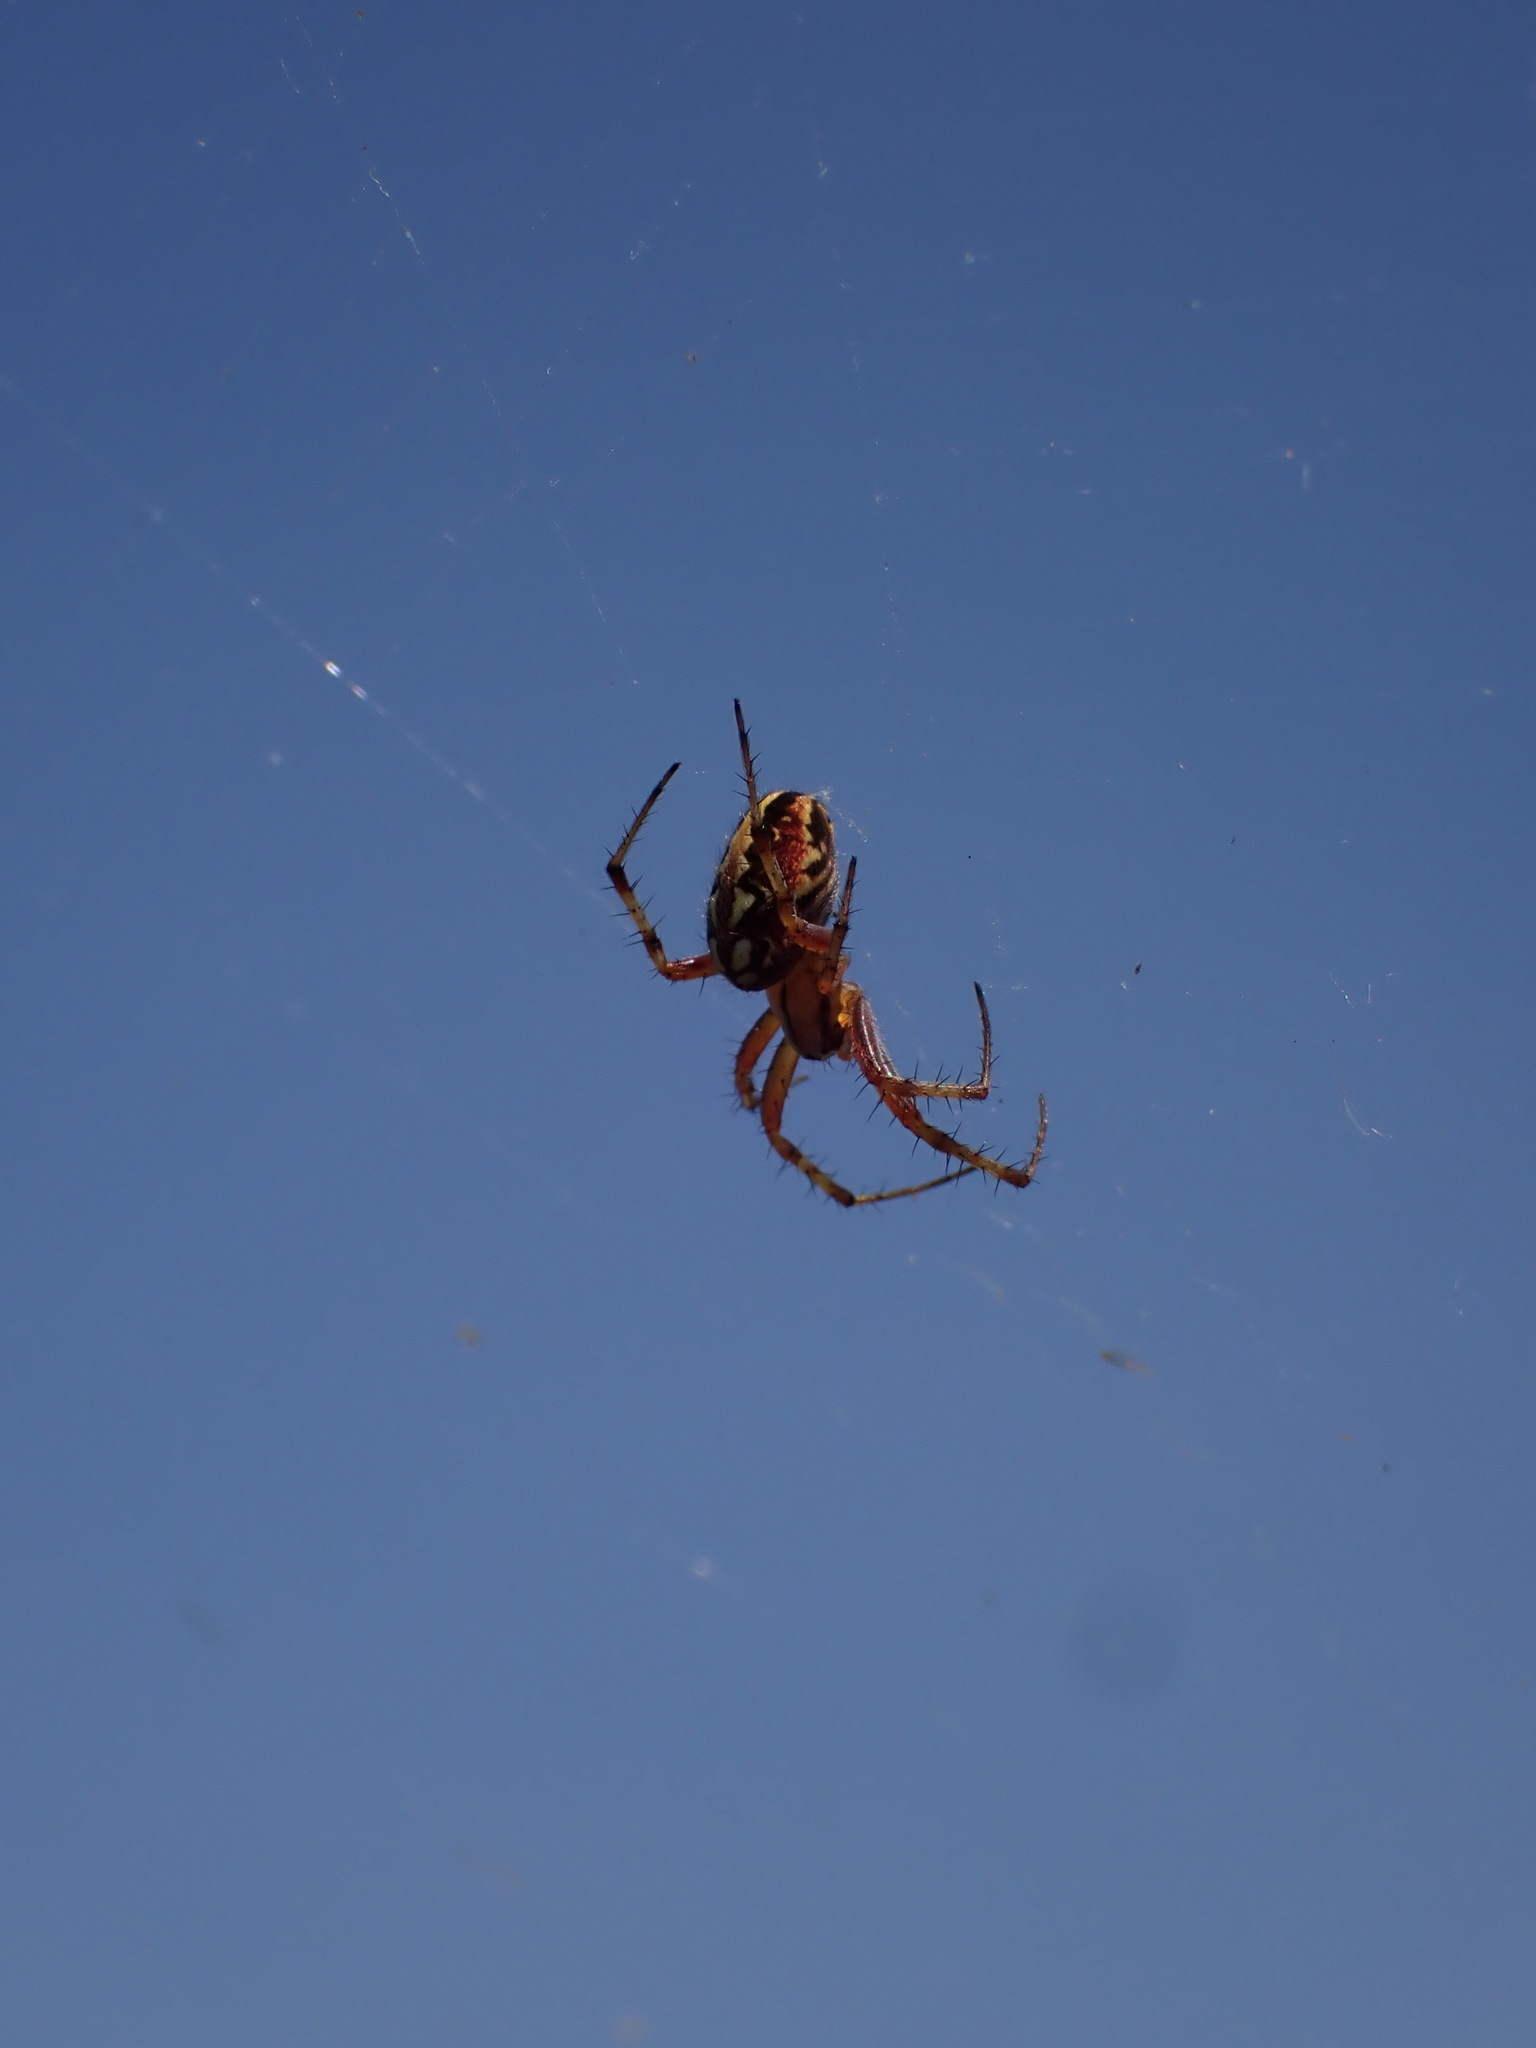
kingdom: Animalia
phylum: Arthropoda
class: Arachnida
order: Araneae
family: Araneidae
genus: Neoscona
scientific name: Neoscona adianta
